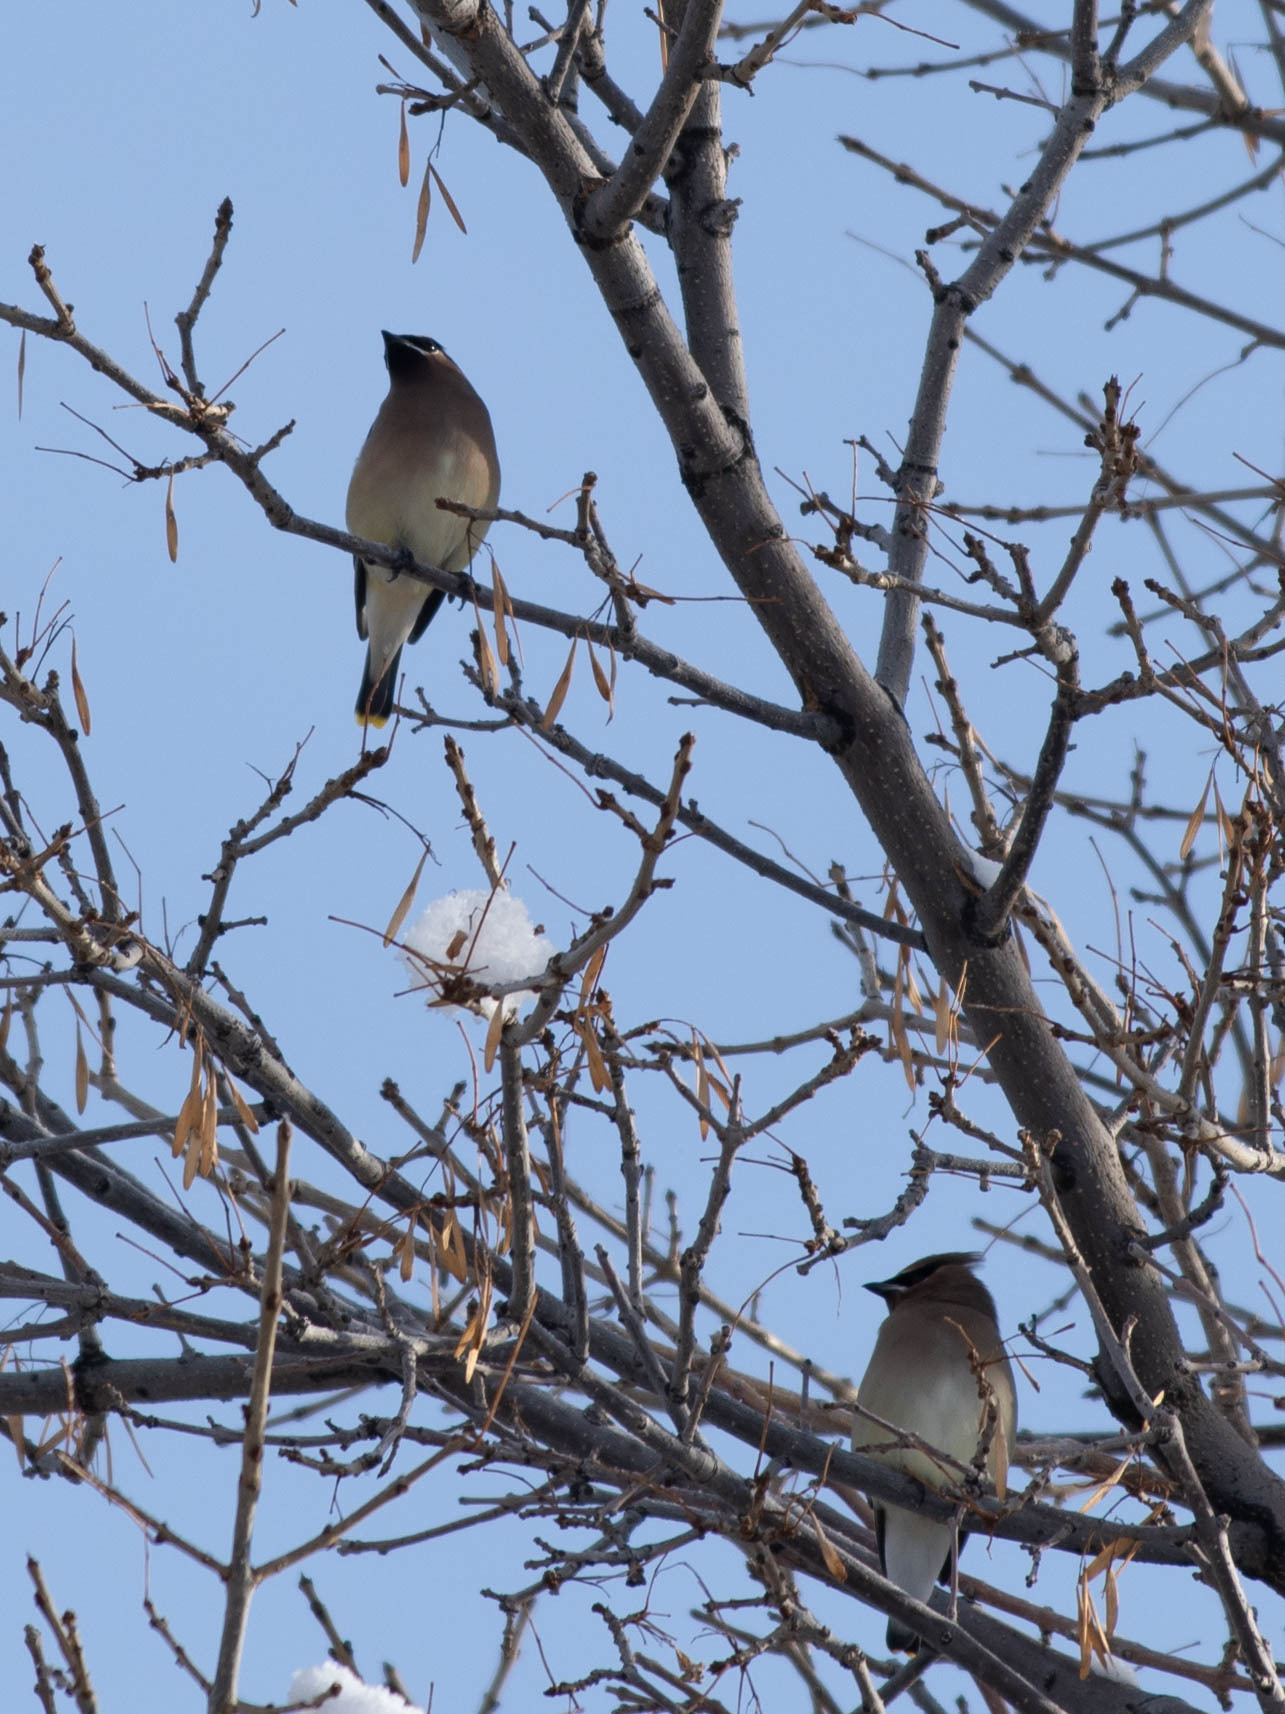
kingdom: Animalia
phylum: Chordata
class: Aves
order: Passeriformes
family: Bombycillidae
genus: Bombycilla
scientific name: Bombycilla cedrorum
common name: Cedar waxwing
